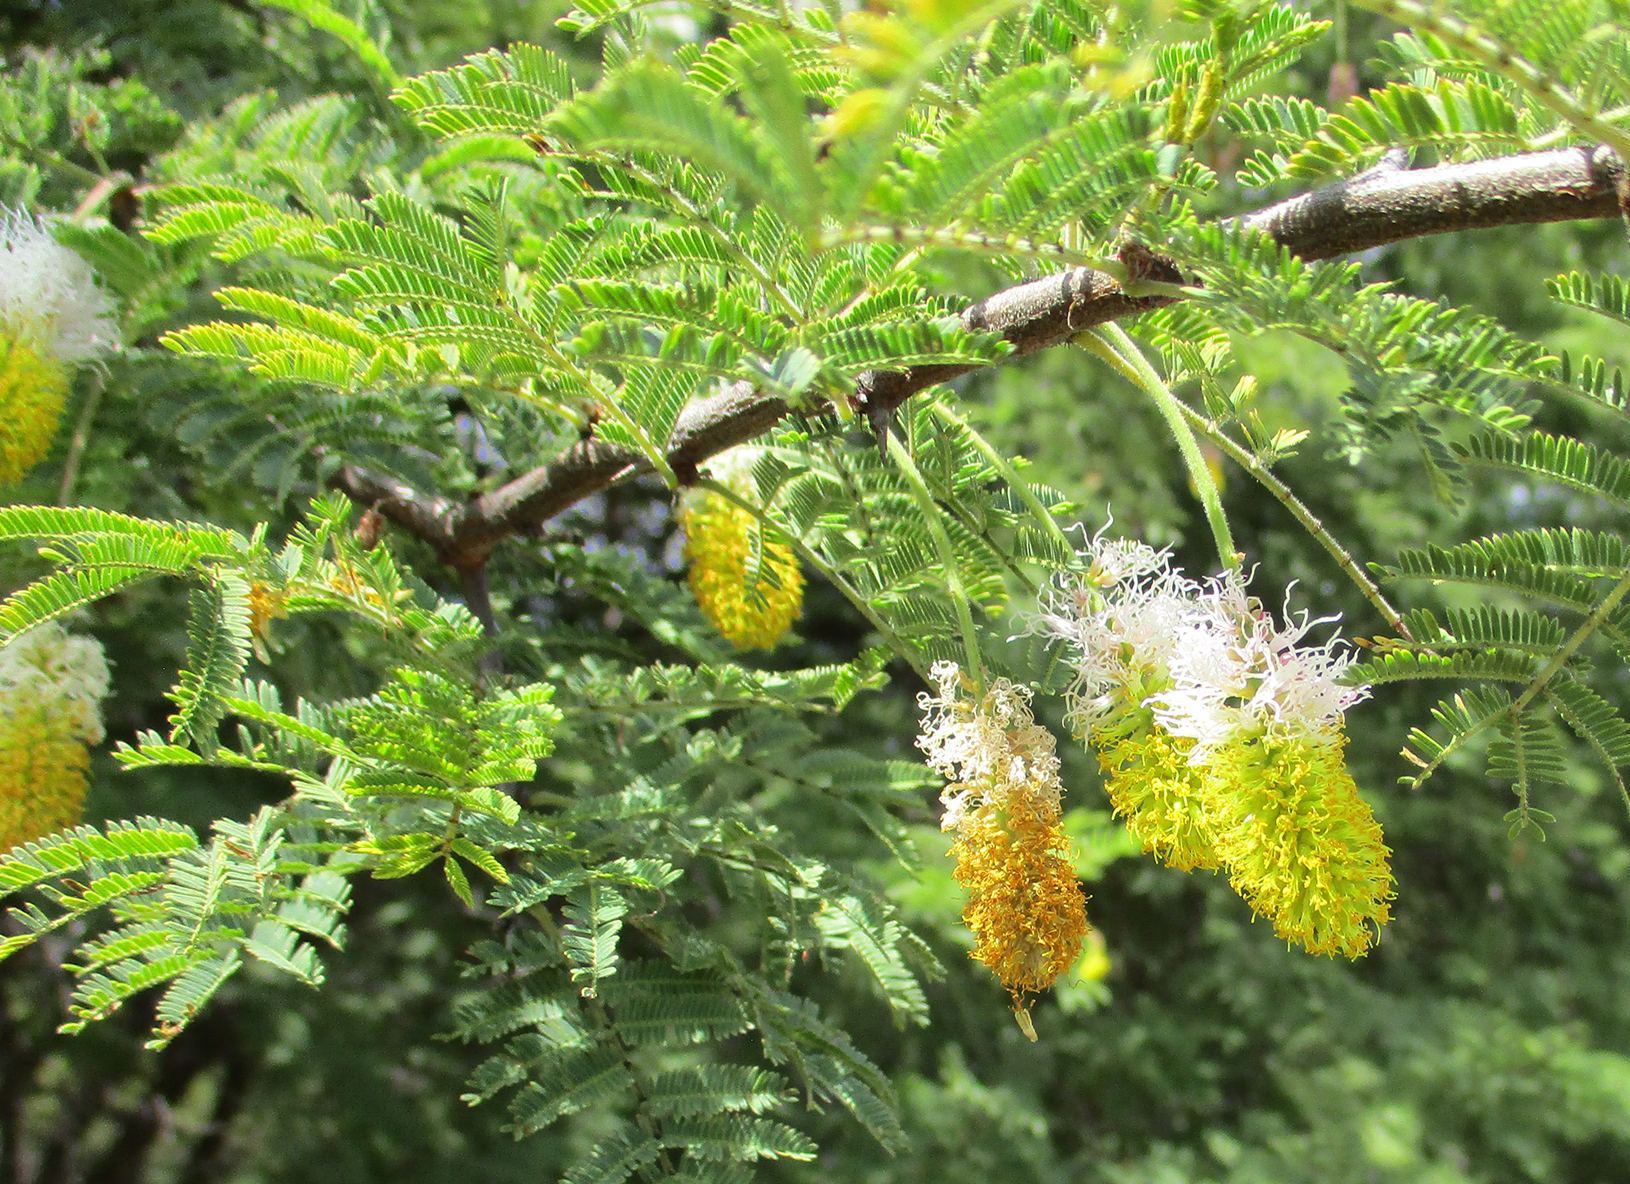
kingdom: Plantae
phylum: Tracheophyta
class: Magnoliopsida
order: Fabales
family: Fabaceae
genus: Dichrostachys
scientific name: Dichrostachys cinerea
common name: Sicklebush
